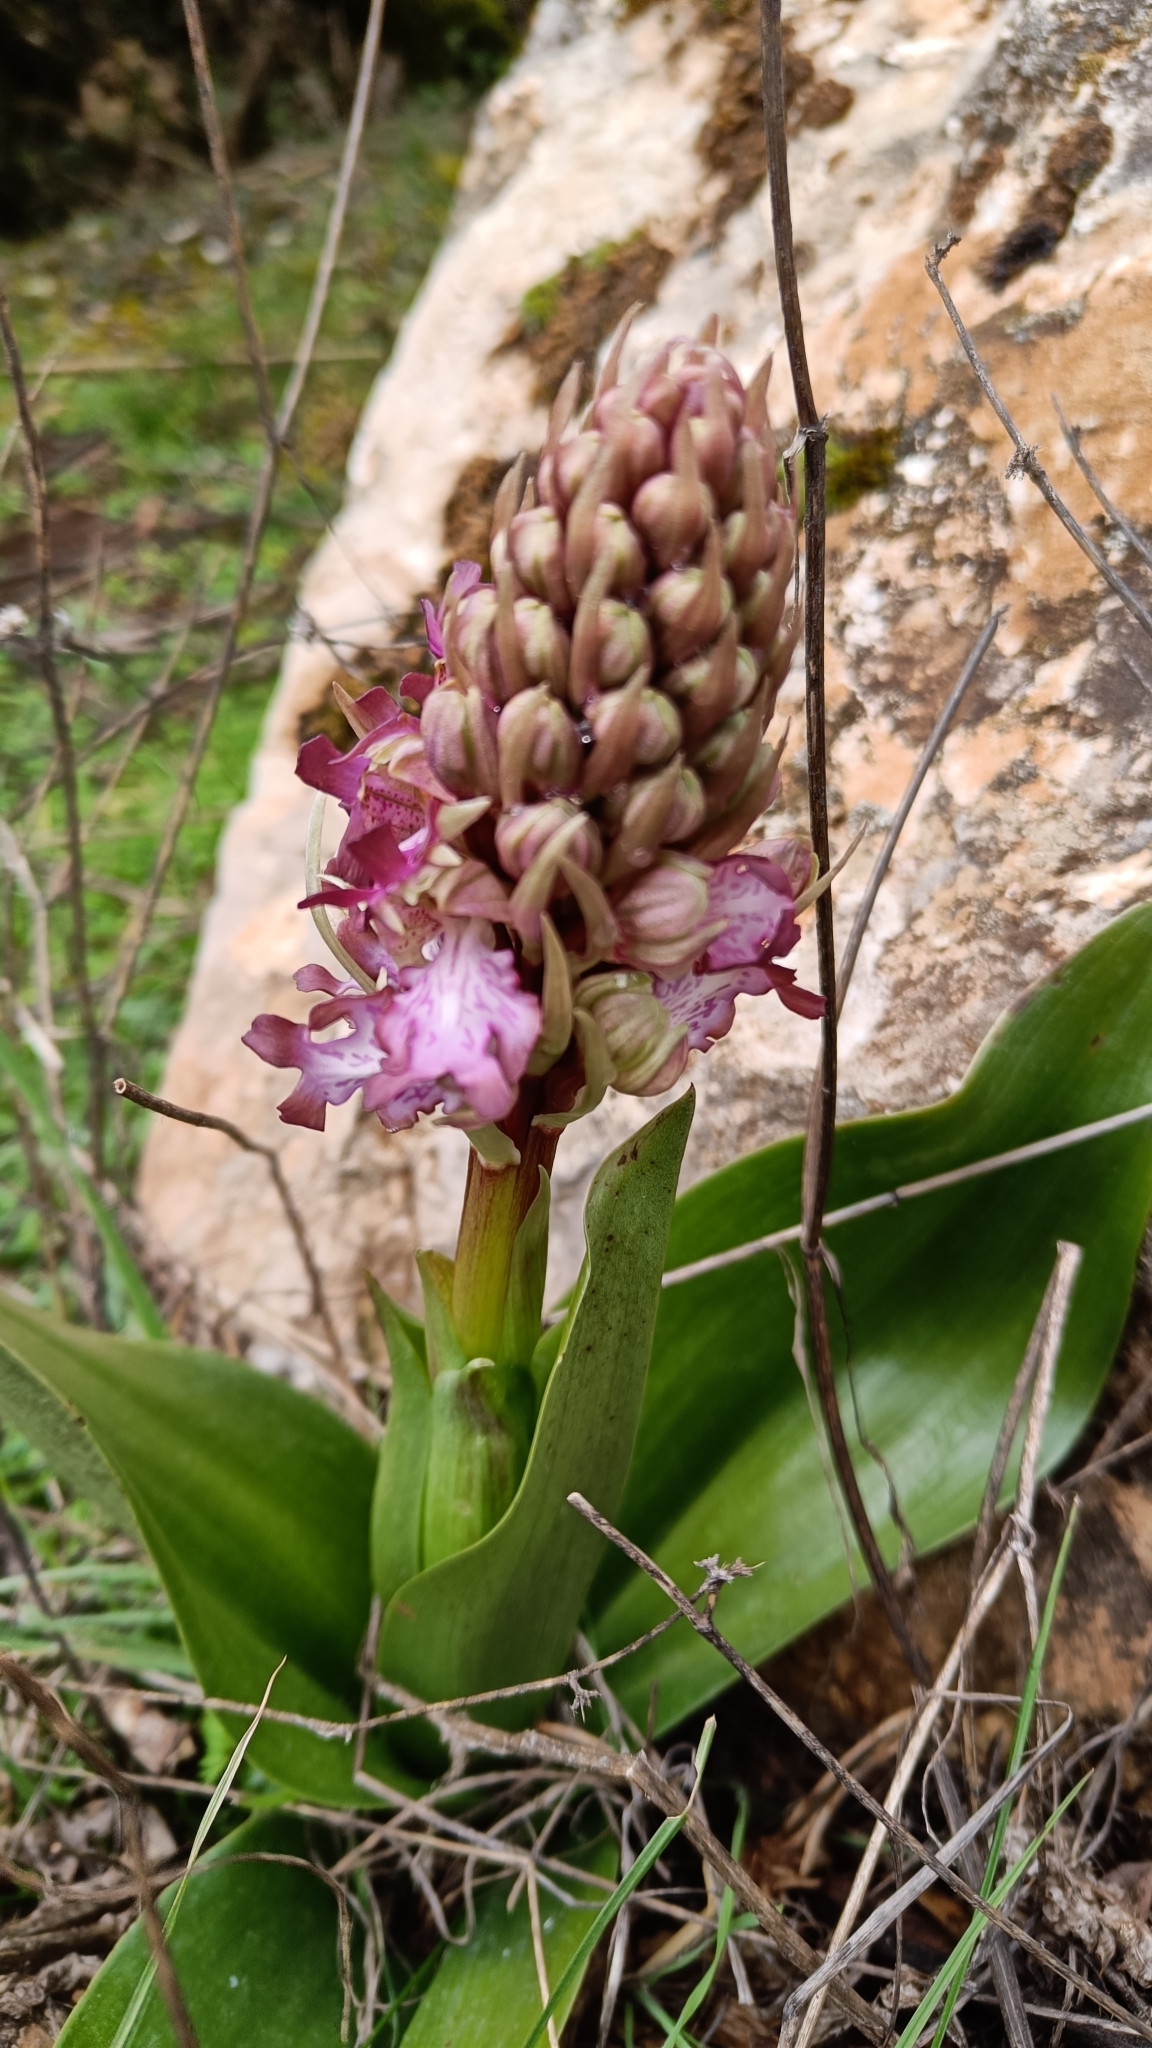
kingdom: Plantae
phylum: Tracheophyta
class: Liliopsida
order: Asparagales
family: Orchidaceae
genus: Himantoglossum
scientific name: Himantoglossum robertianum
